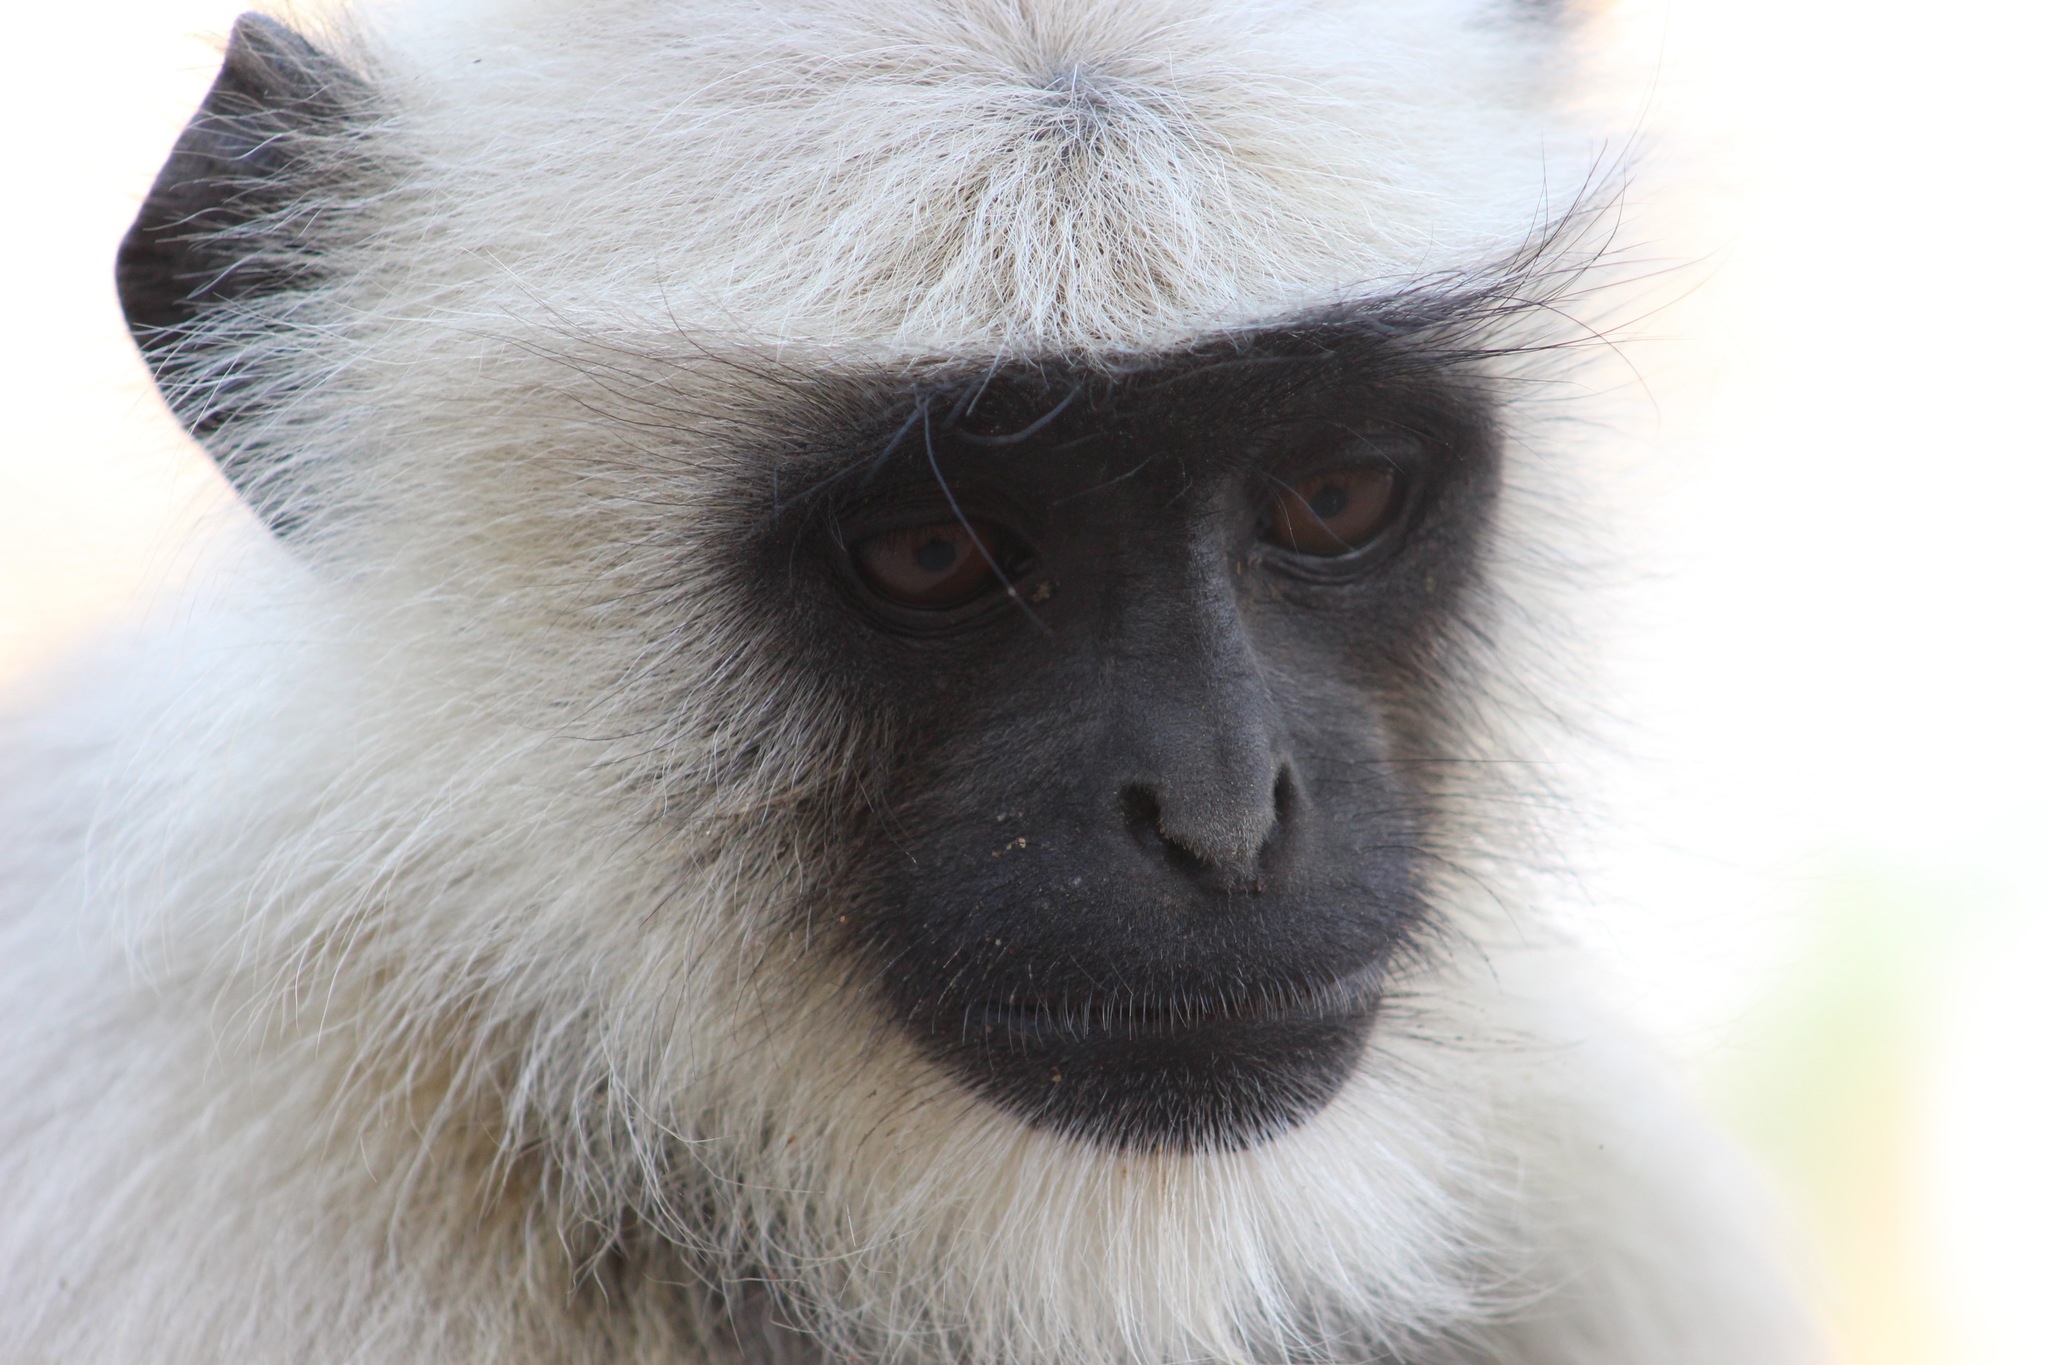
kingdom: Animalia
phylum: Chordata
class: Mammalia
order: Primates
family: Cercopithecidae
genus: Semnopithecus
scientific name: Semnopithecus entellus
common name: Northern plains gray langur
